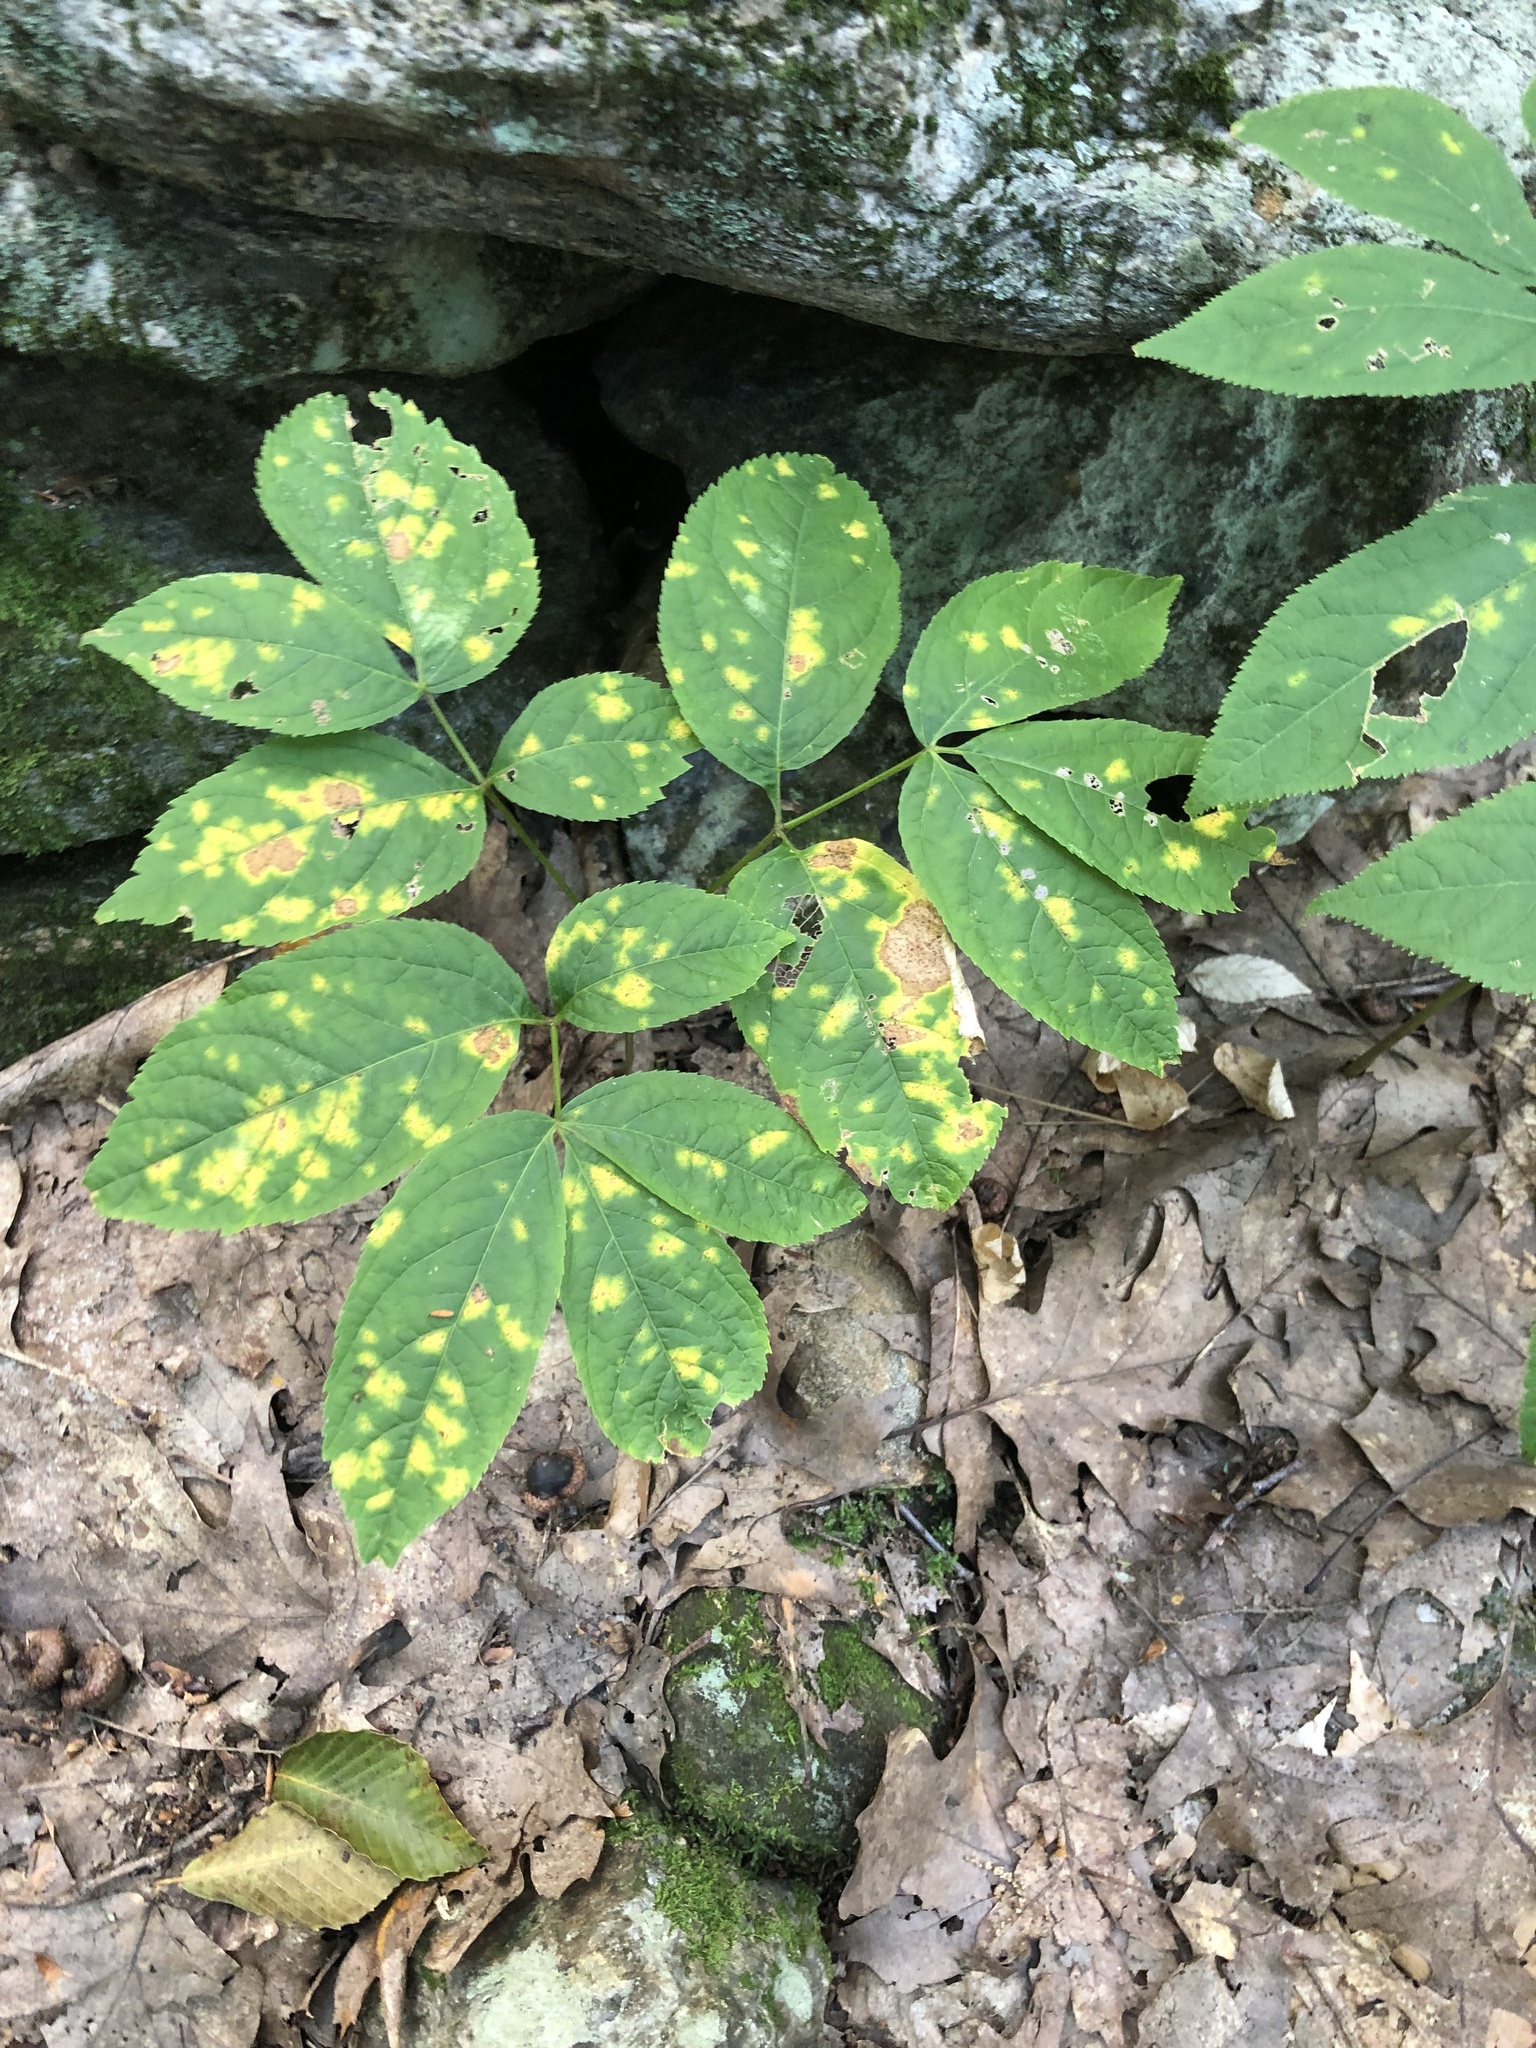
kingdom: Plantae
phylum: Tracheophyta
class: Magnoliopsida
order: Apiales
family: Araliaceae
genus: Aralia
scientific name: Aralia nudicaulis
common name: Wild sarsaparilla
